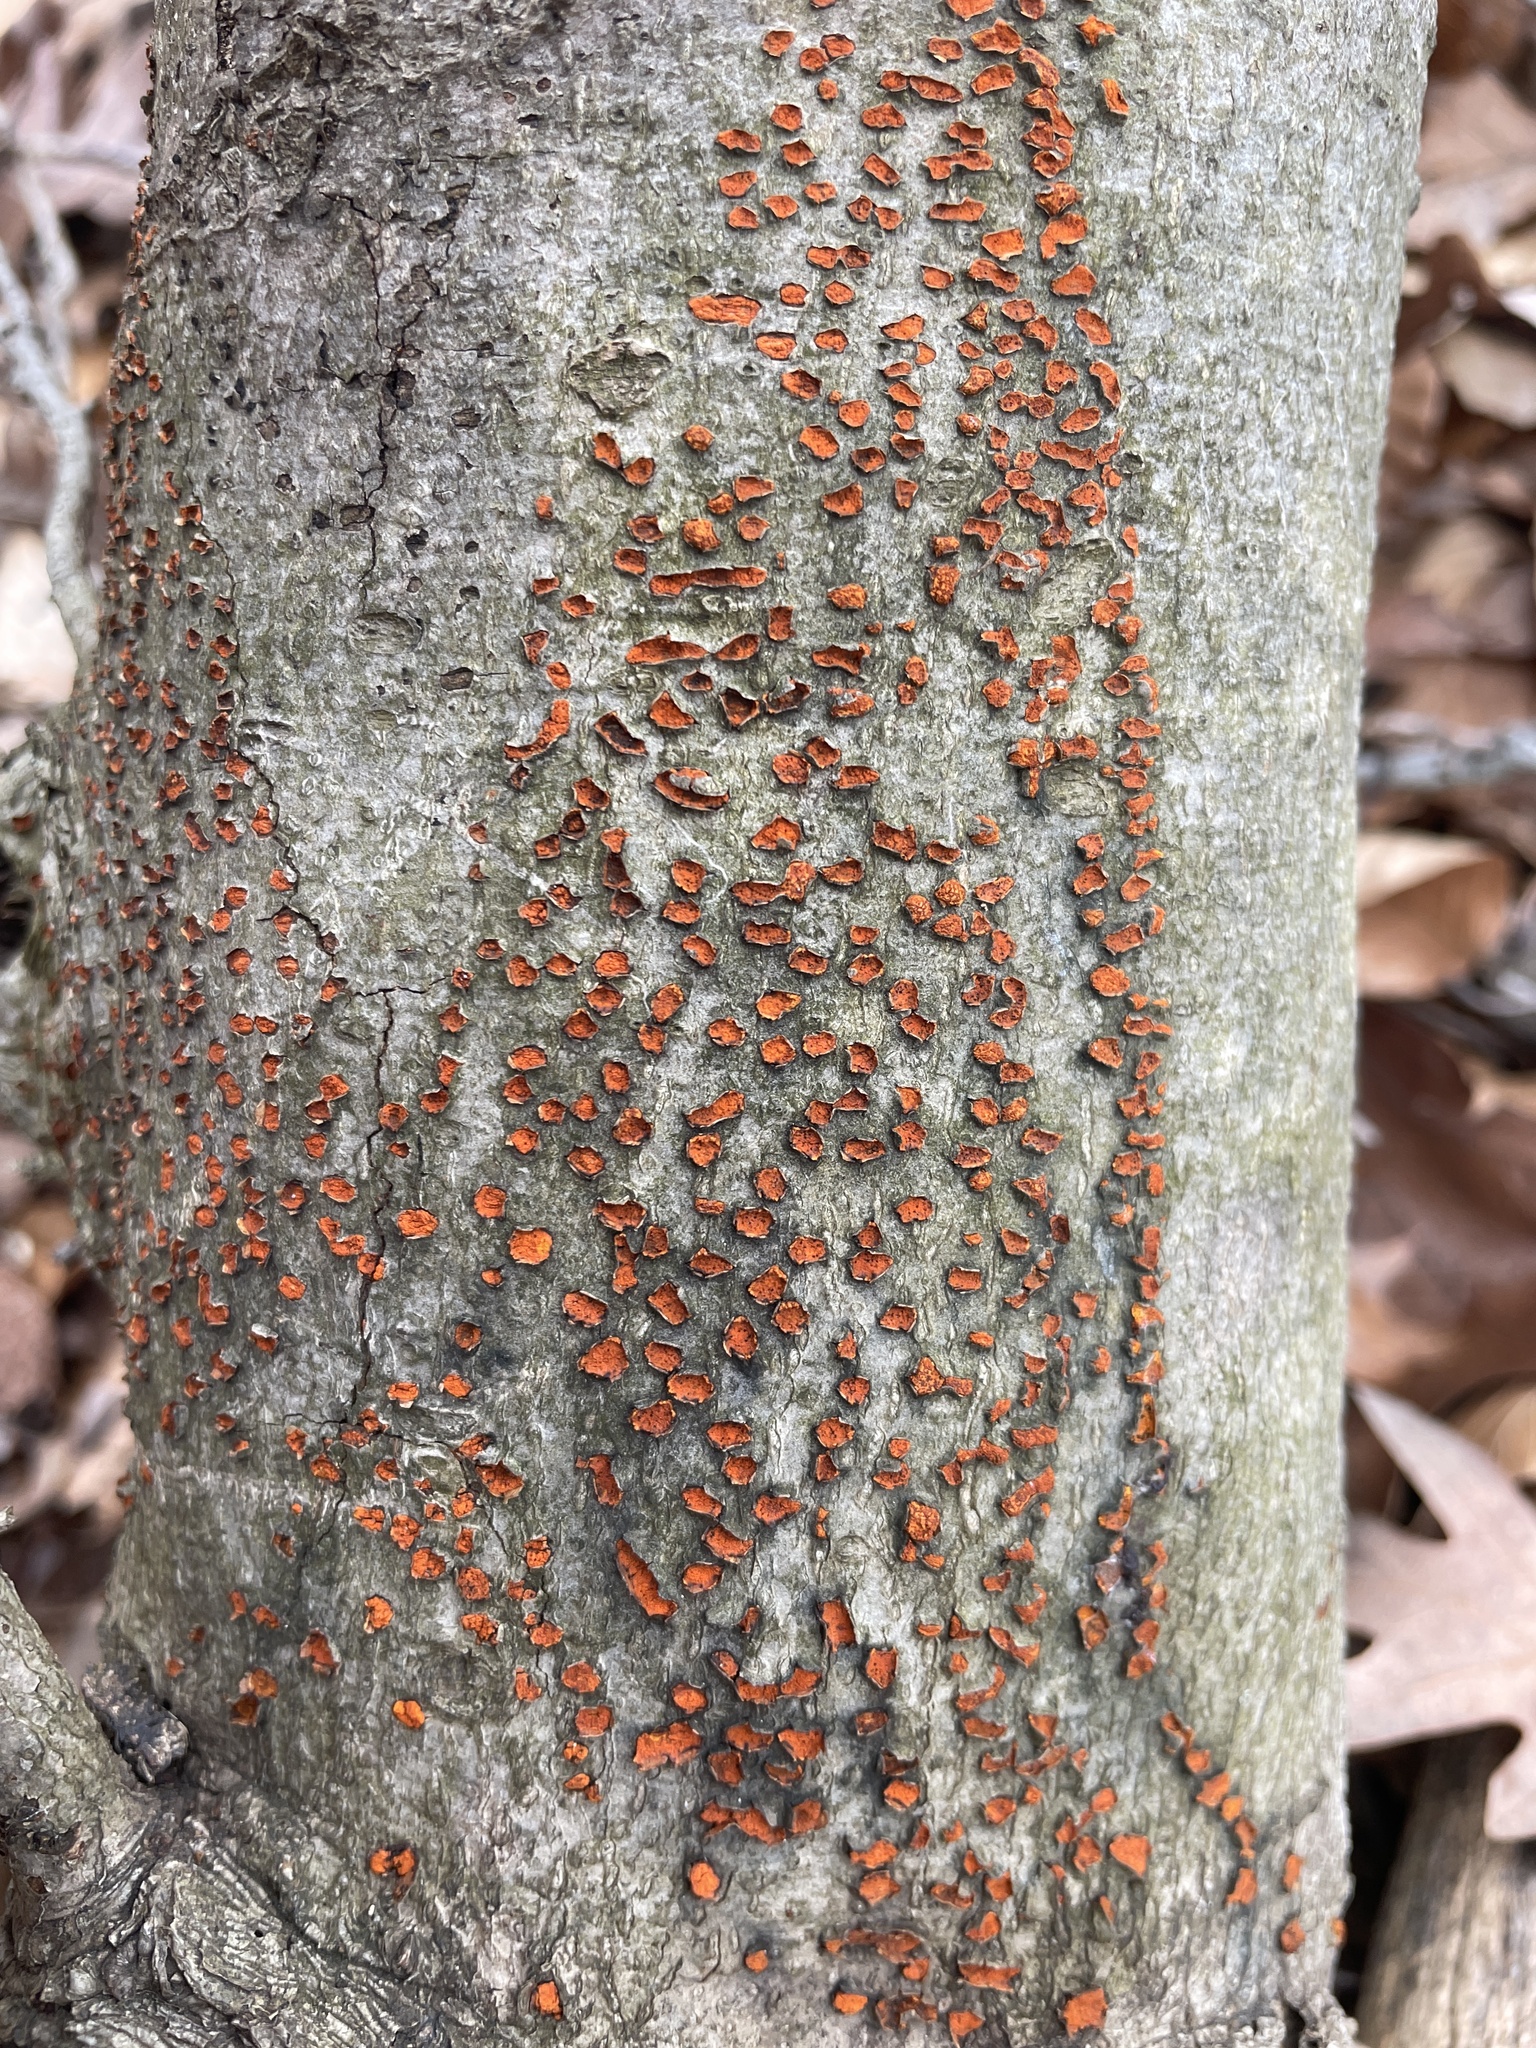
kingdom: Fungi
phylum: Ascomycota
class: Sordariomycetes
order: Diaporthales
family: Cryphonectriaceae
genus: Amphilogia
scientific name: Amphilogia gyrosa
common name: Orange hobnail canker
